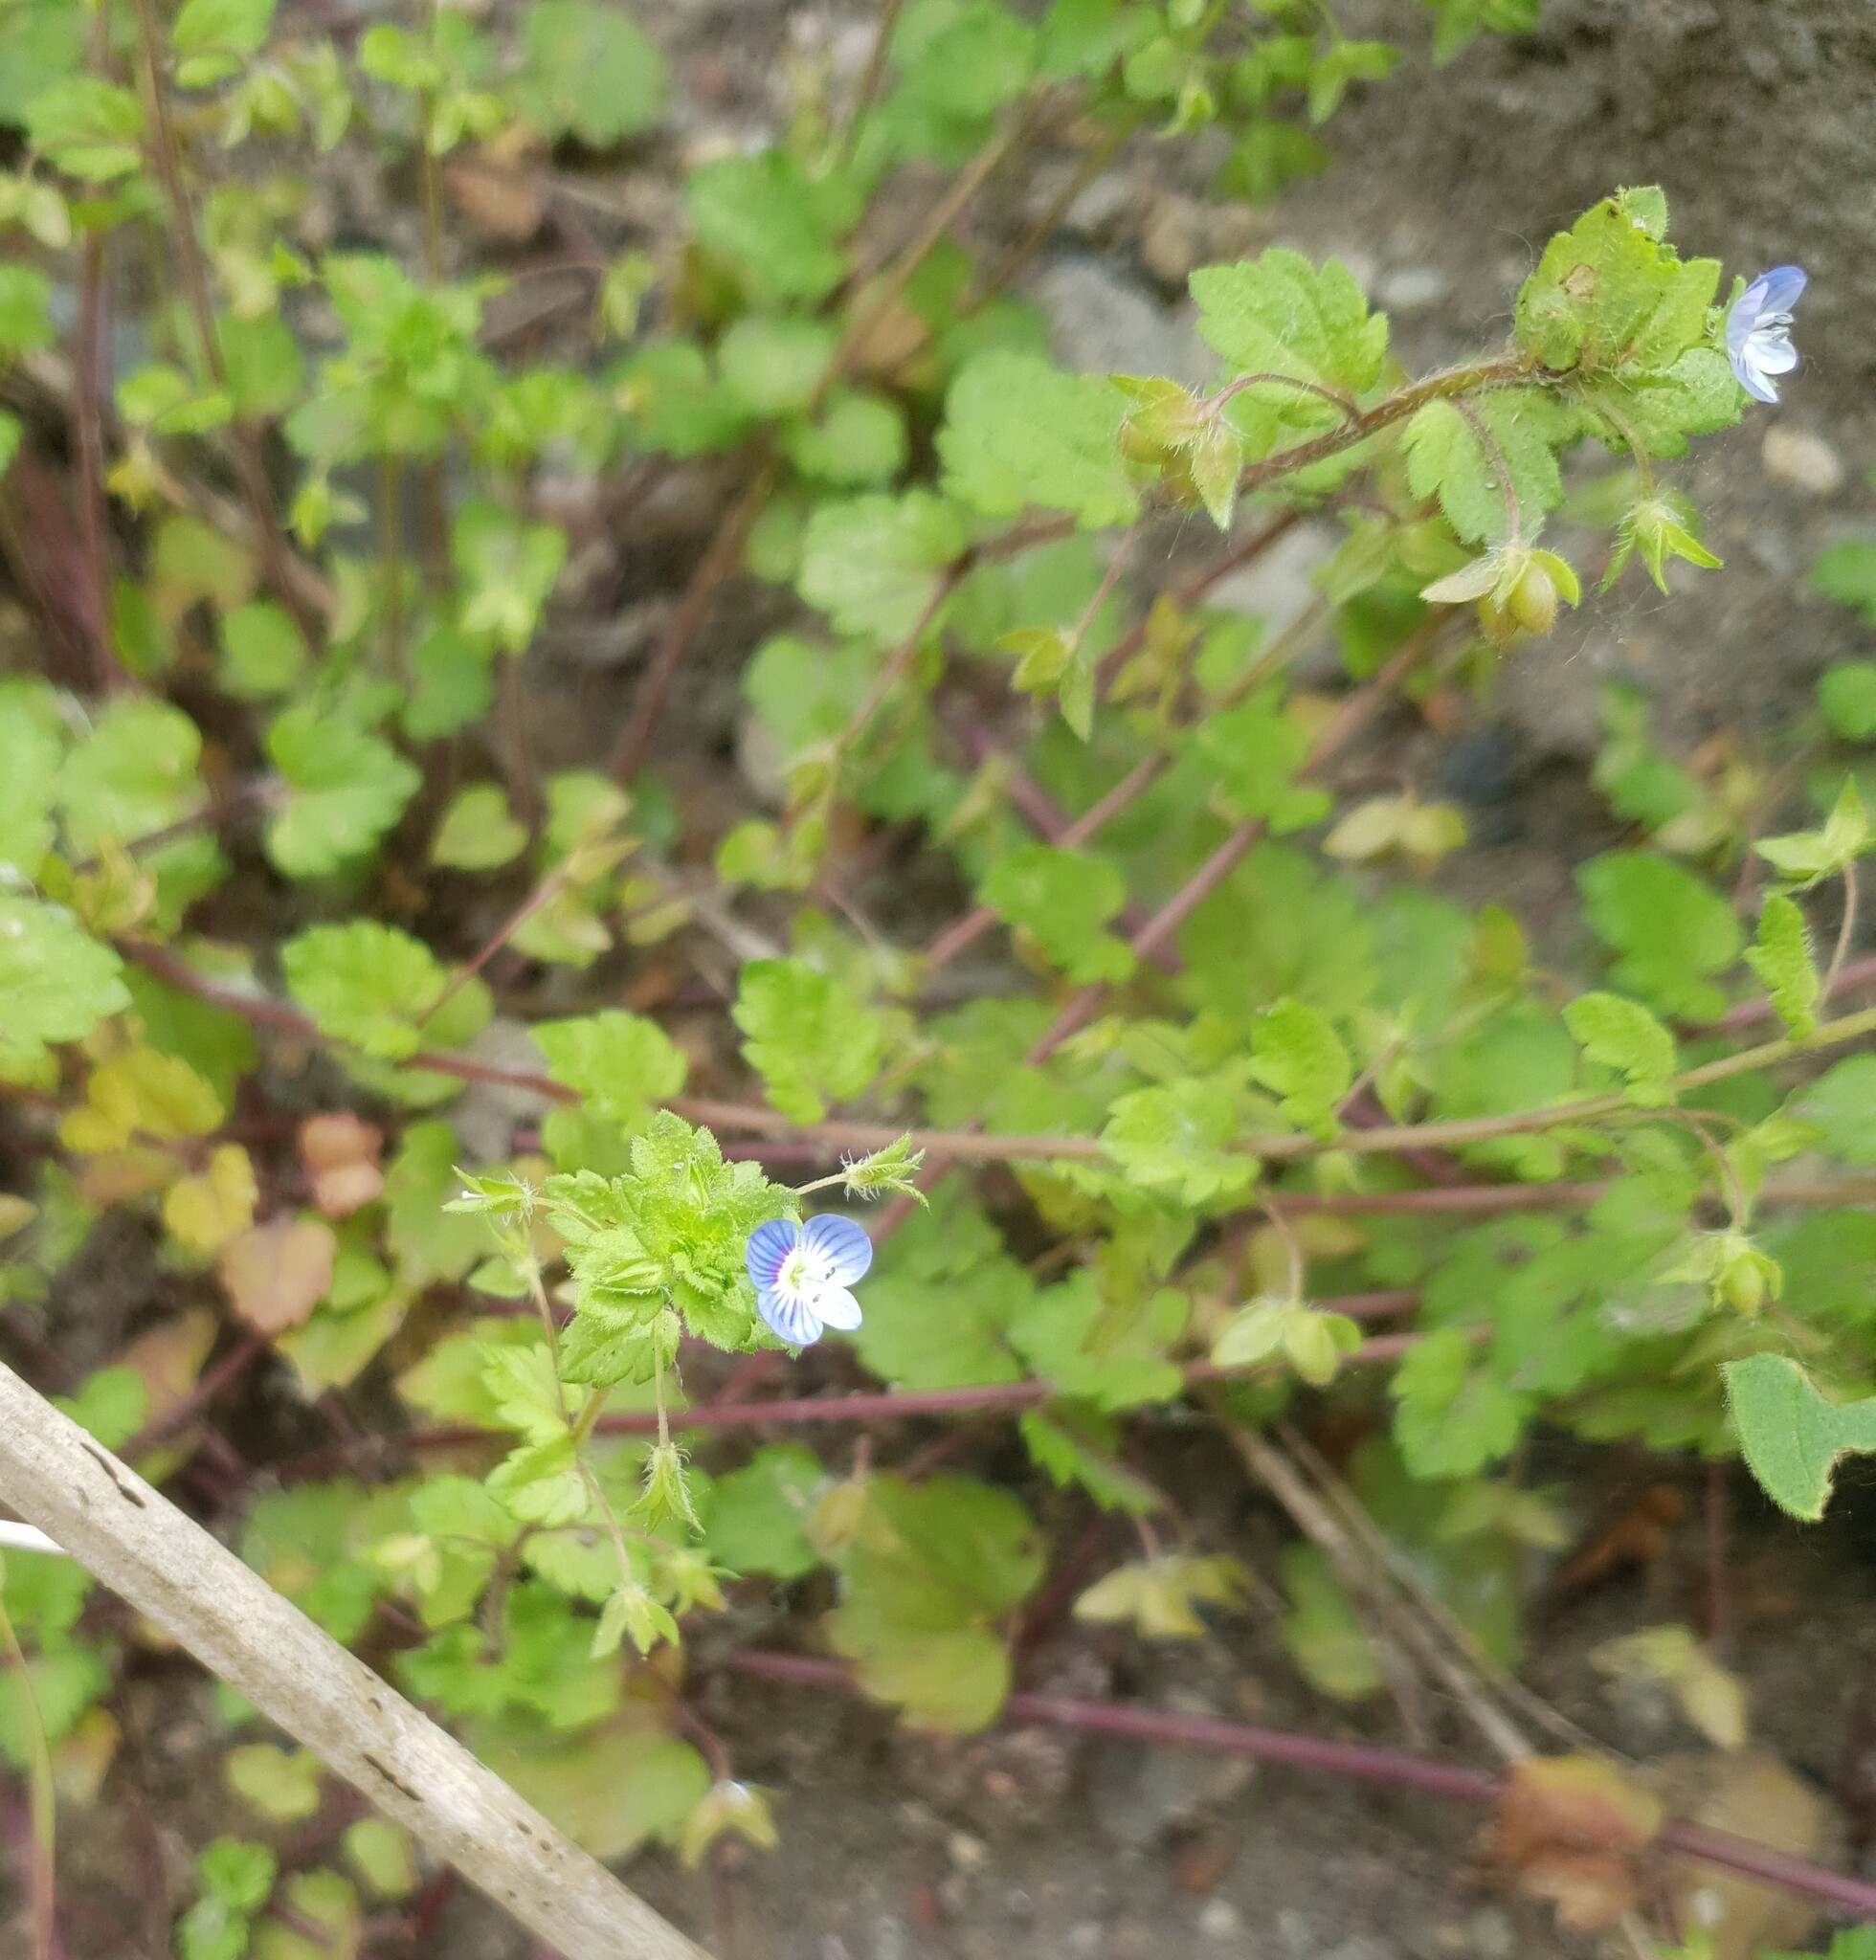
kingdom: Plantae
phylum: Tracheophyta
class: Magnoliopsida
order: Lamiales
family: Plantaginaceae
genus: Veronica
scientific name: Veronica persica
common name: Common field-speedwell
